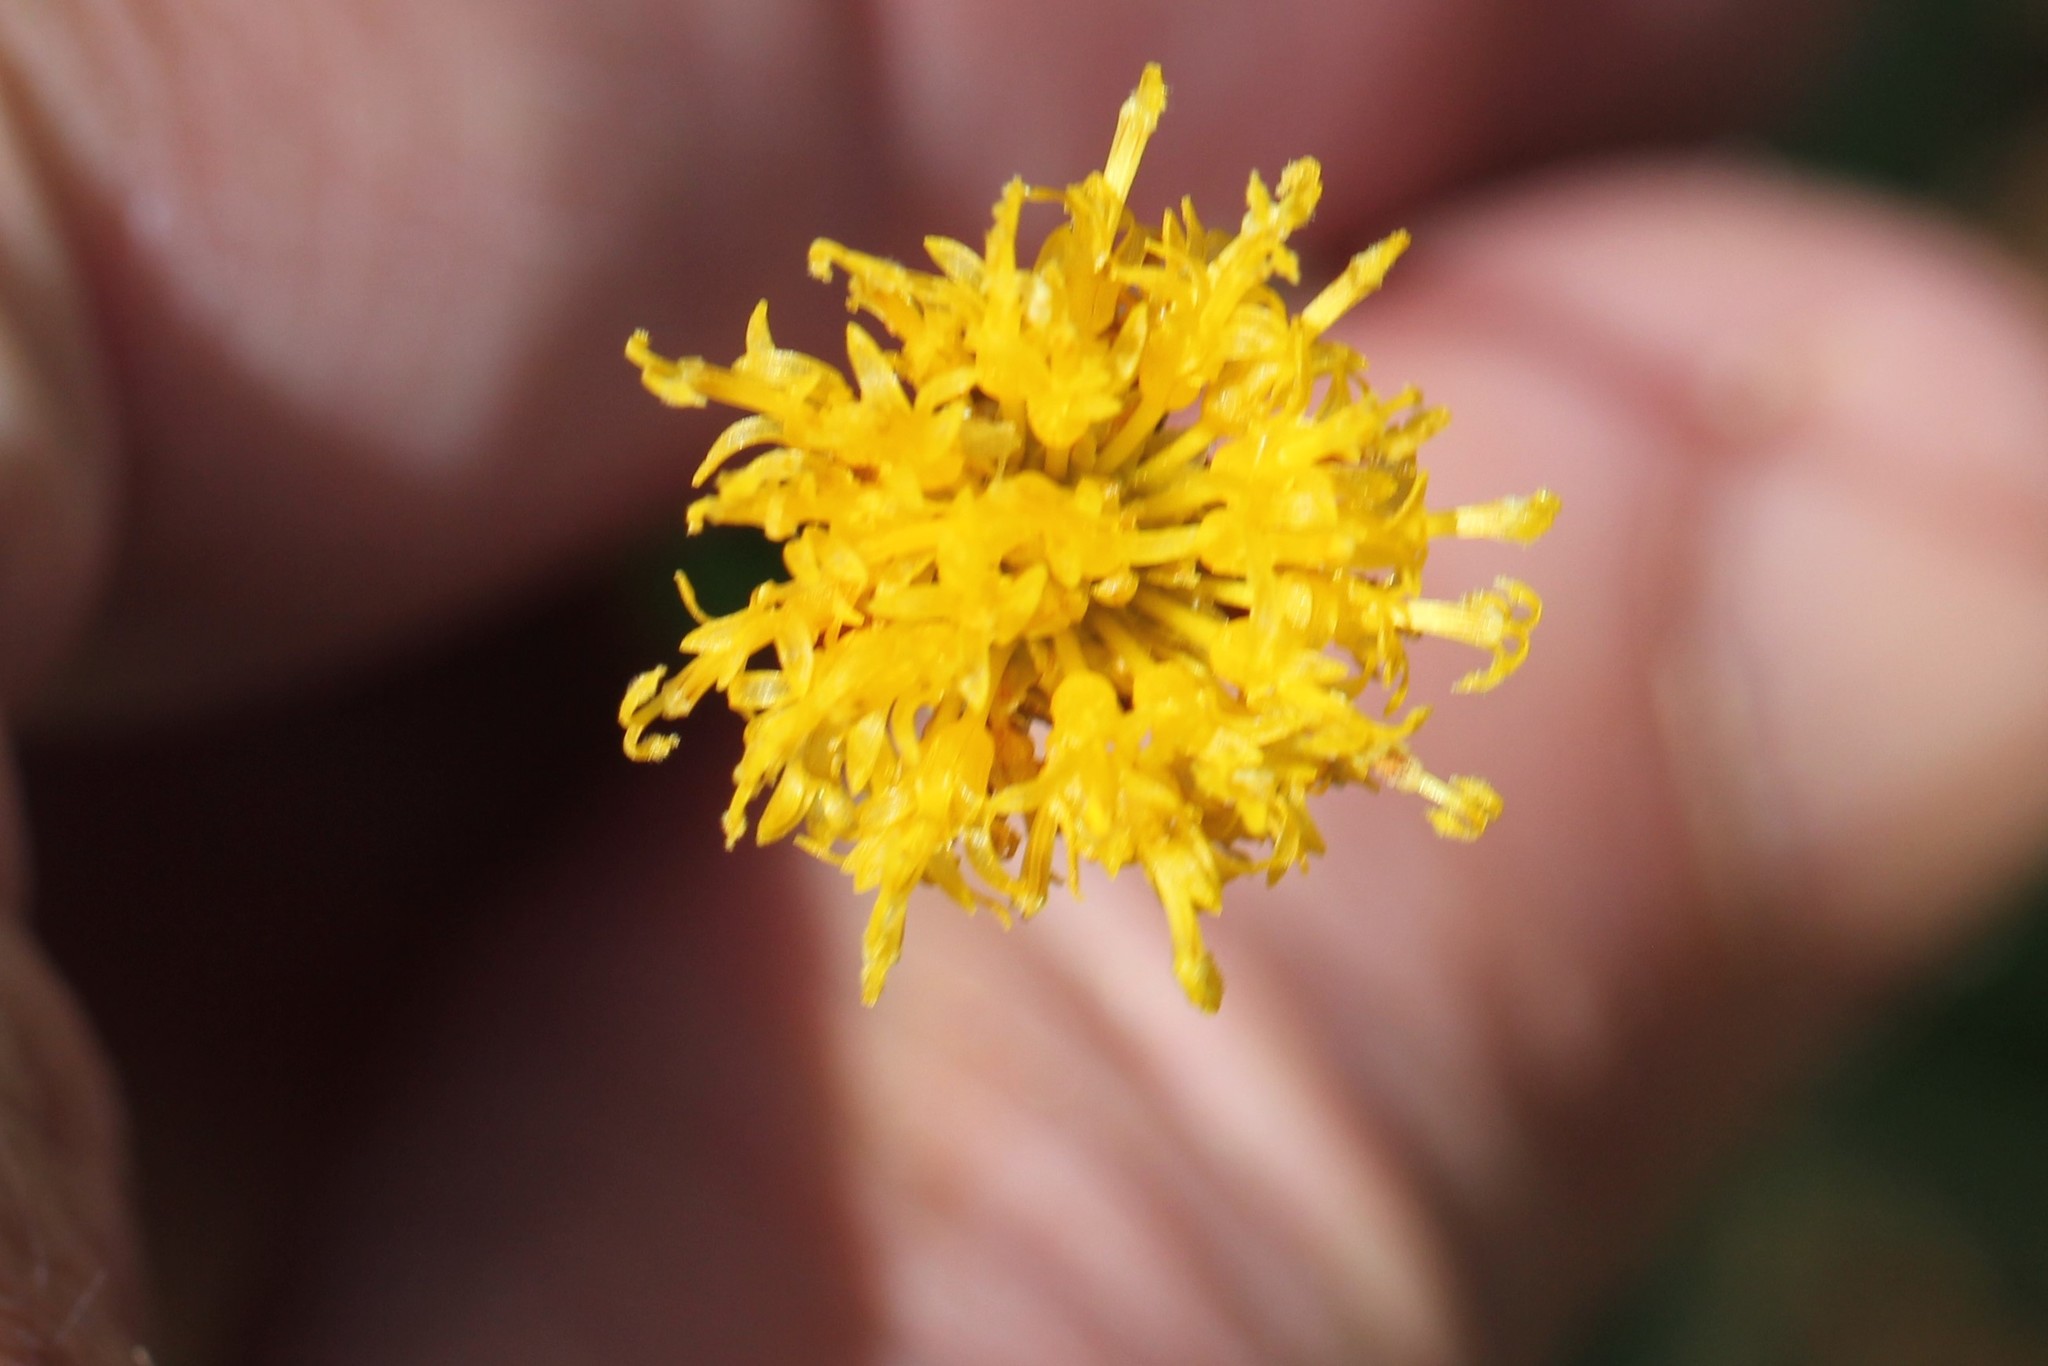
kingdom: Plantae
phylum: Tracheophyta
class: Magnoliopsida
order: Asterales
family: Asteraceae
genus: Thelesperma
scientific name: Thelesperma megapotamicum
